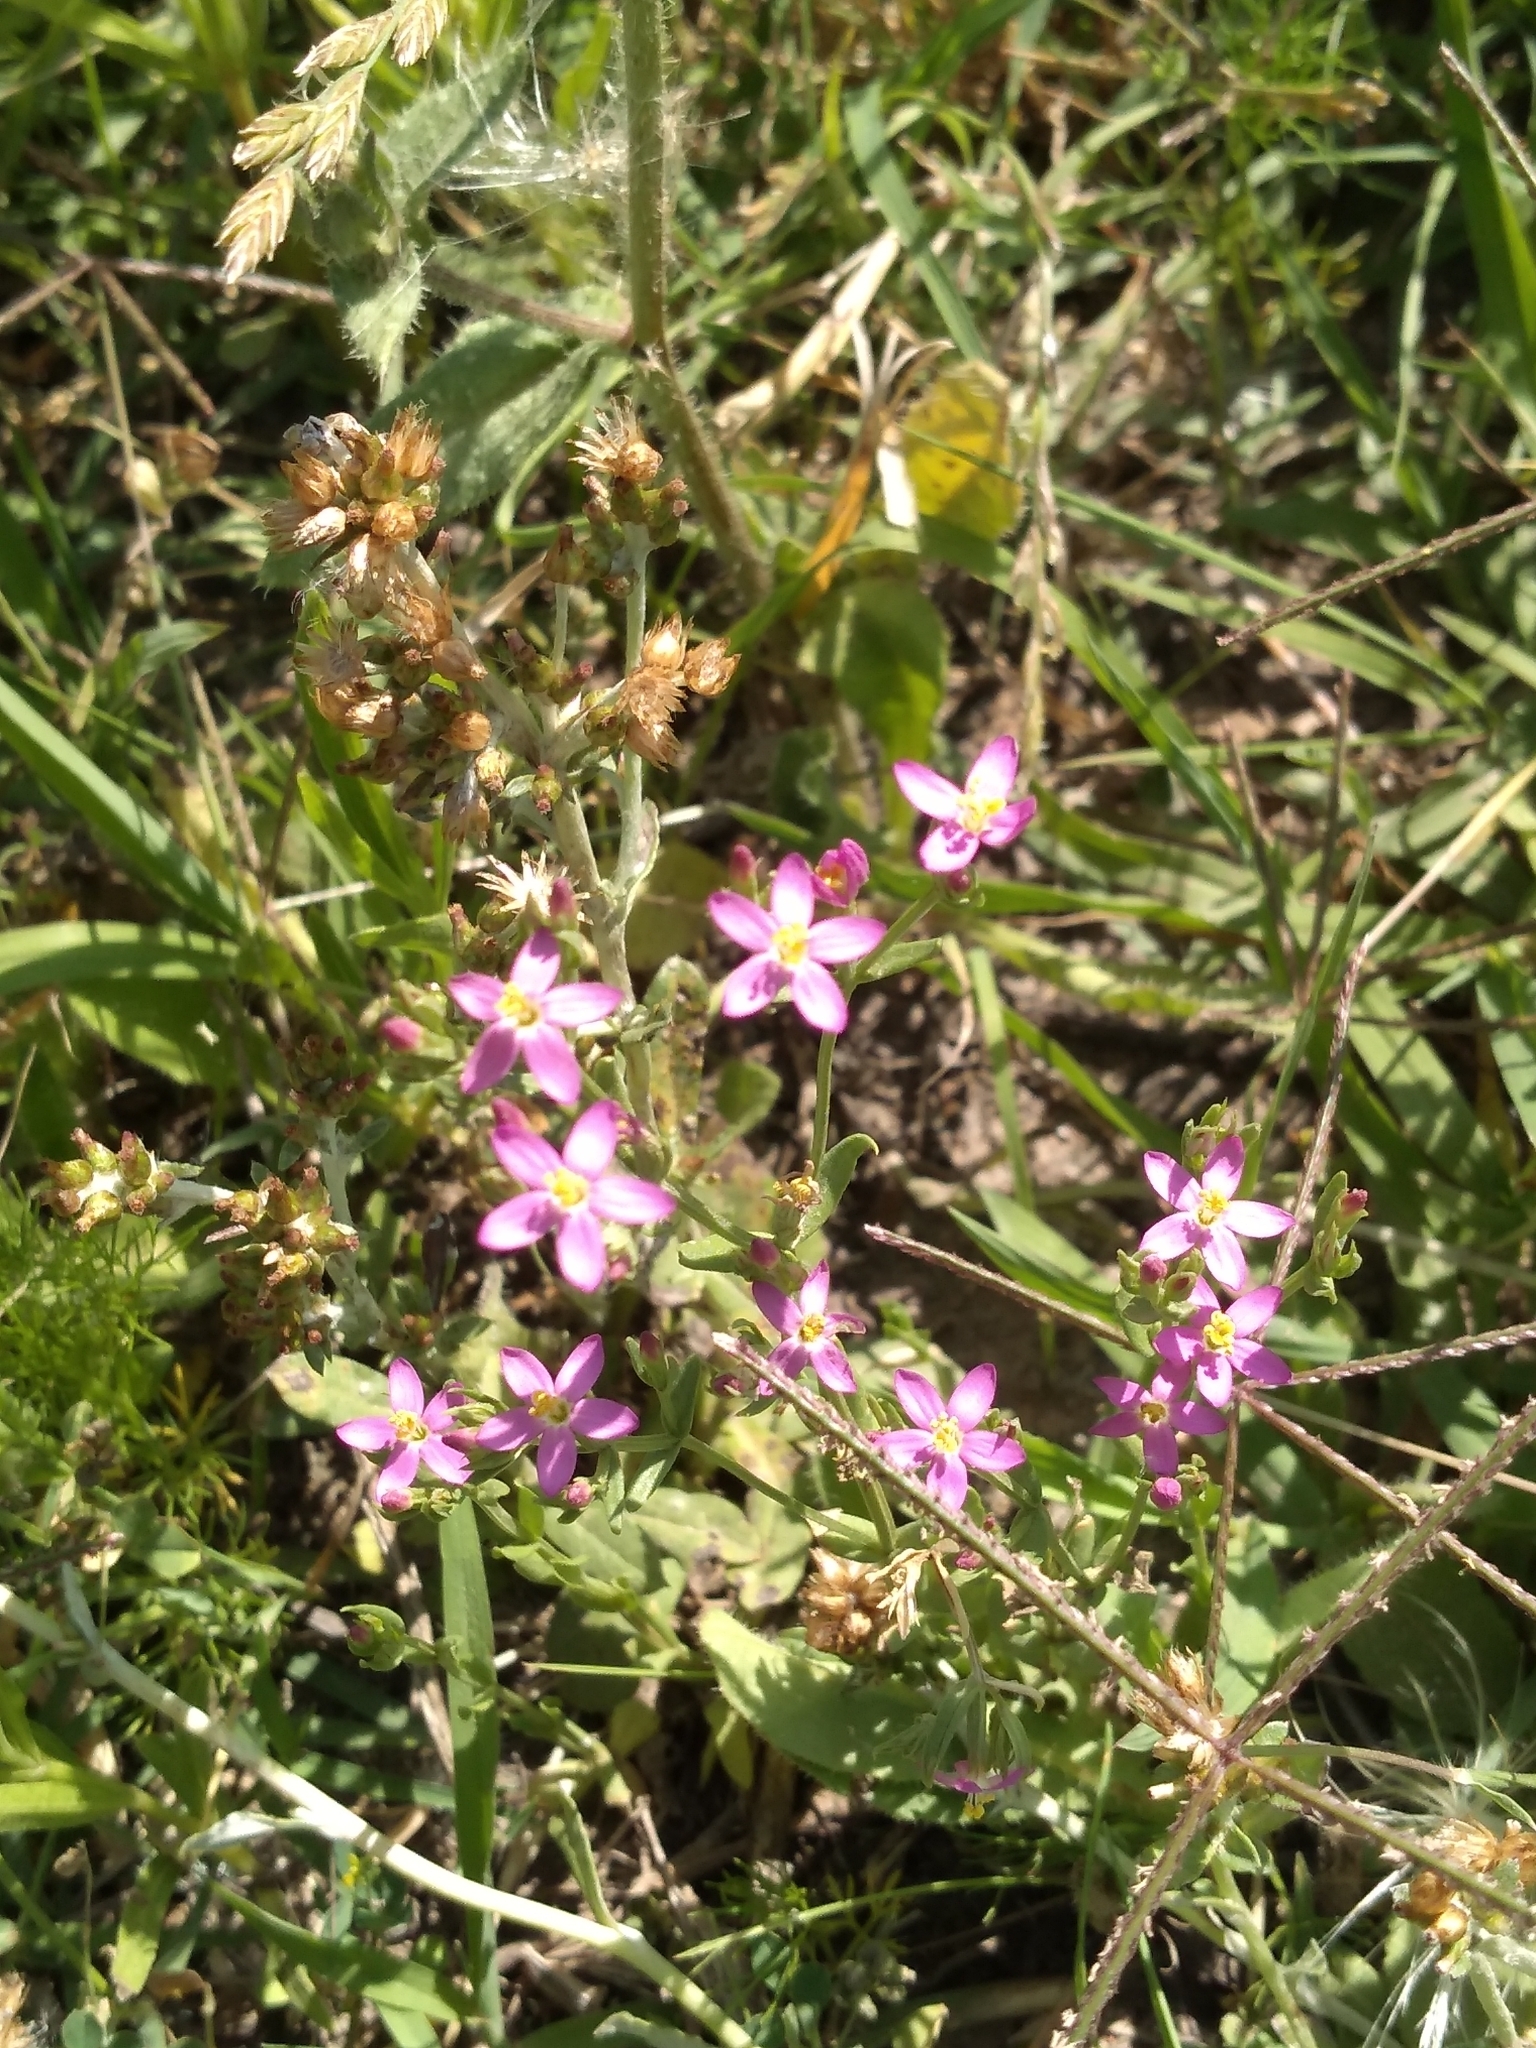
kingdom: Plantae
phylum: Tracheophyta
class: Magnoliopsida
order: Gentianales
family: Gentianaceae
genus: Centaurium
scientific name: Centaurium pulchellum
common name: Lesser centaury
